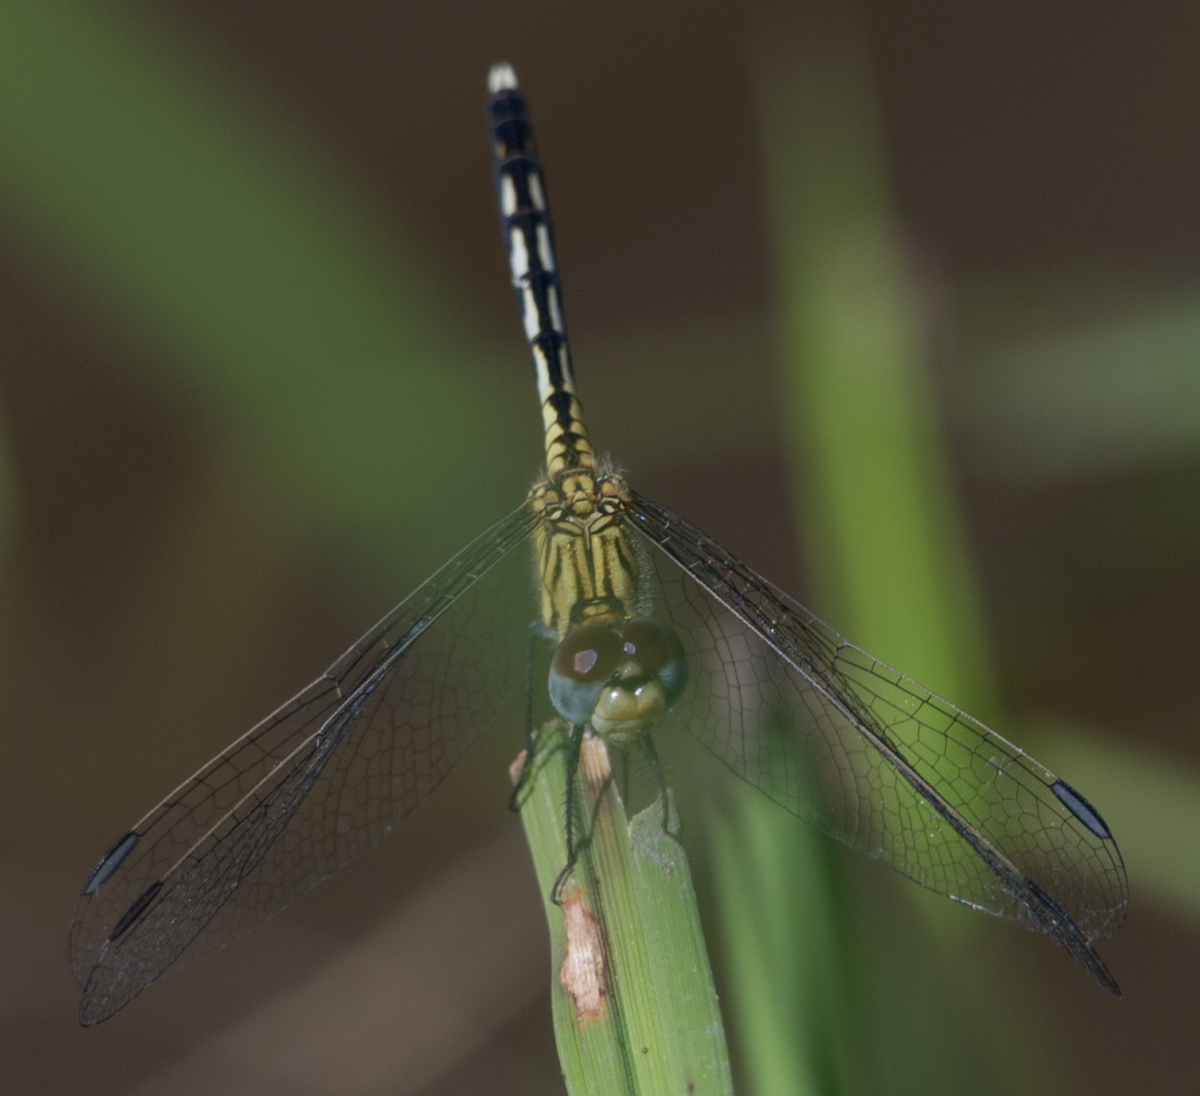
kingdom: Animalia
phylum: Arthropoda
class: Insecta
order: Odonata
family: Libellulidae
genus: Diplacodes
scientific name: Diplacodes lefebvrii
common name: Black percher
